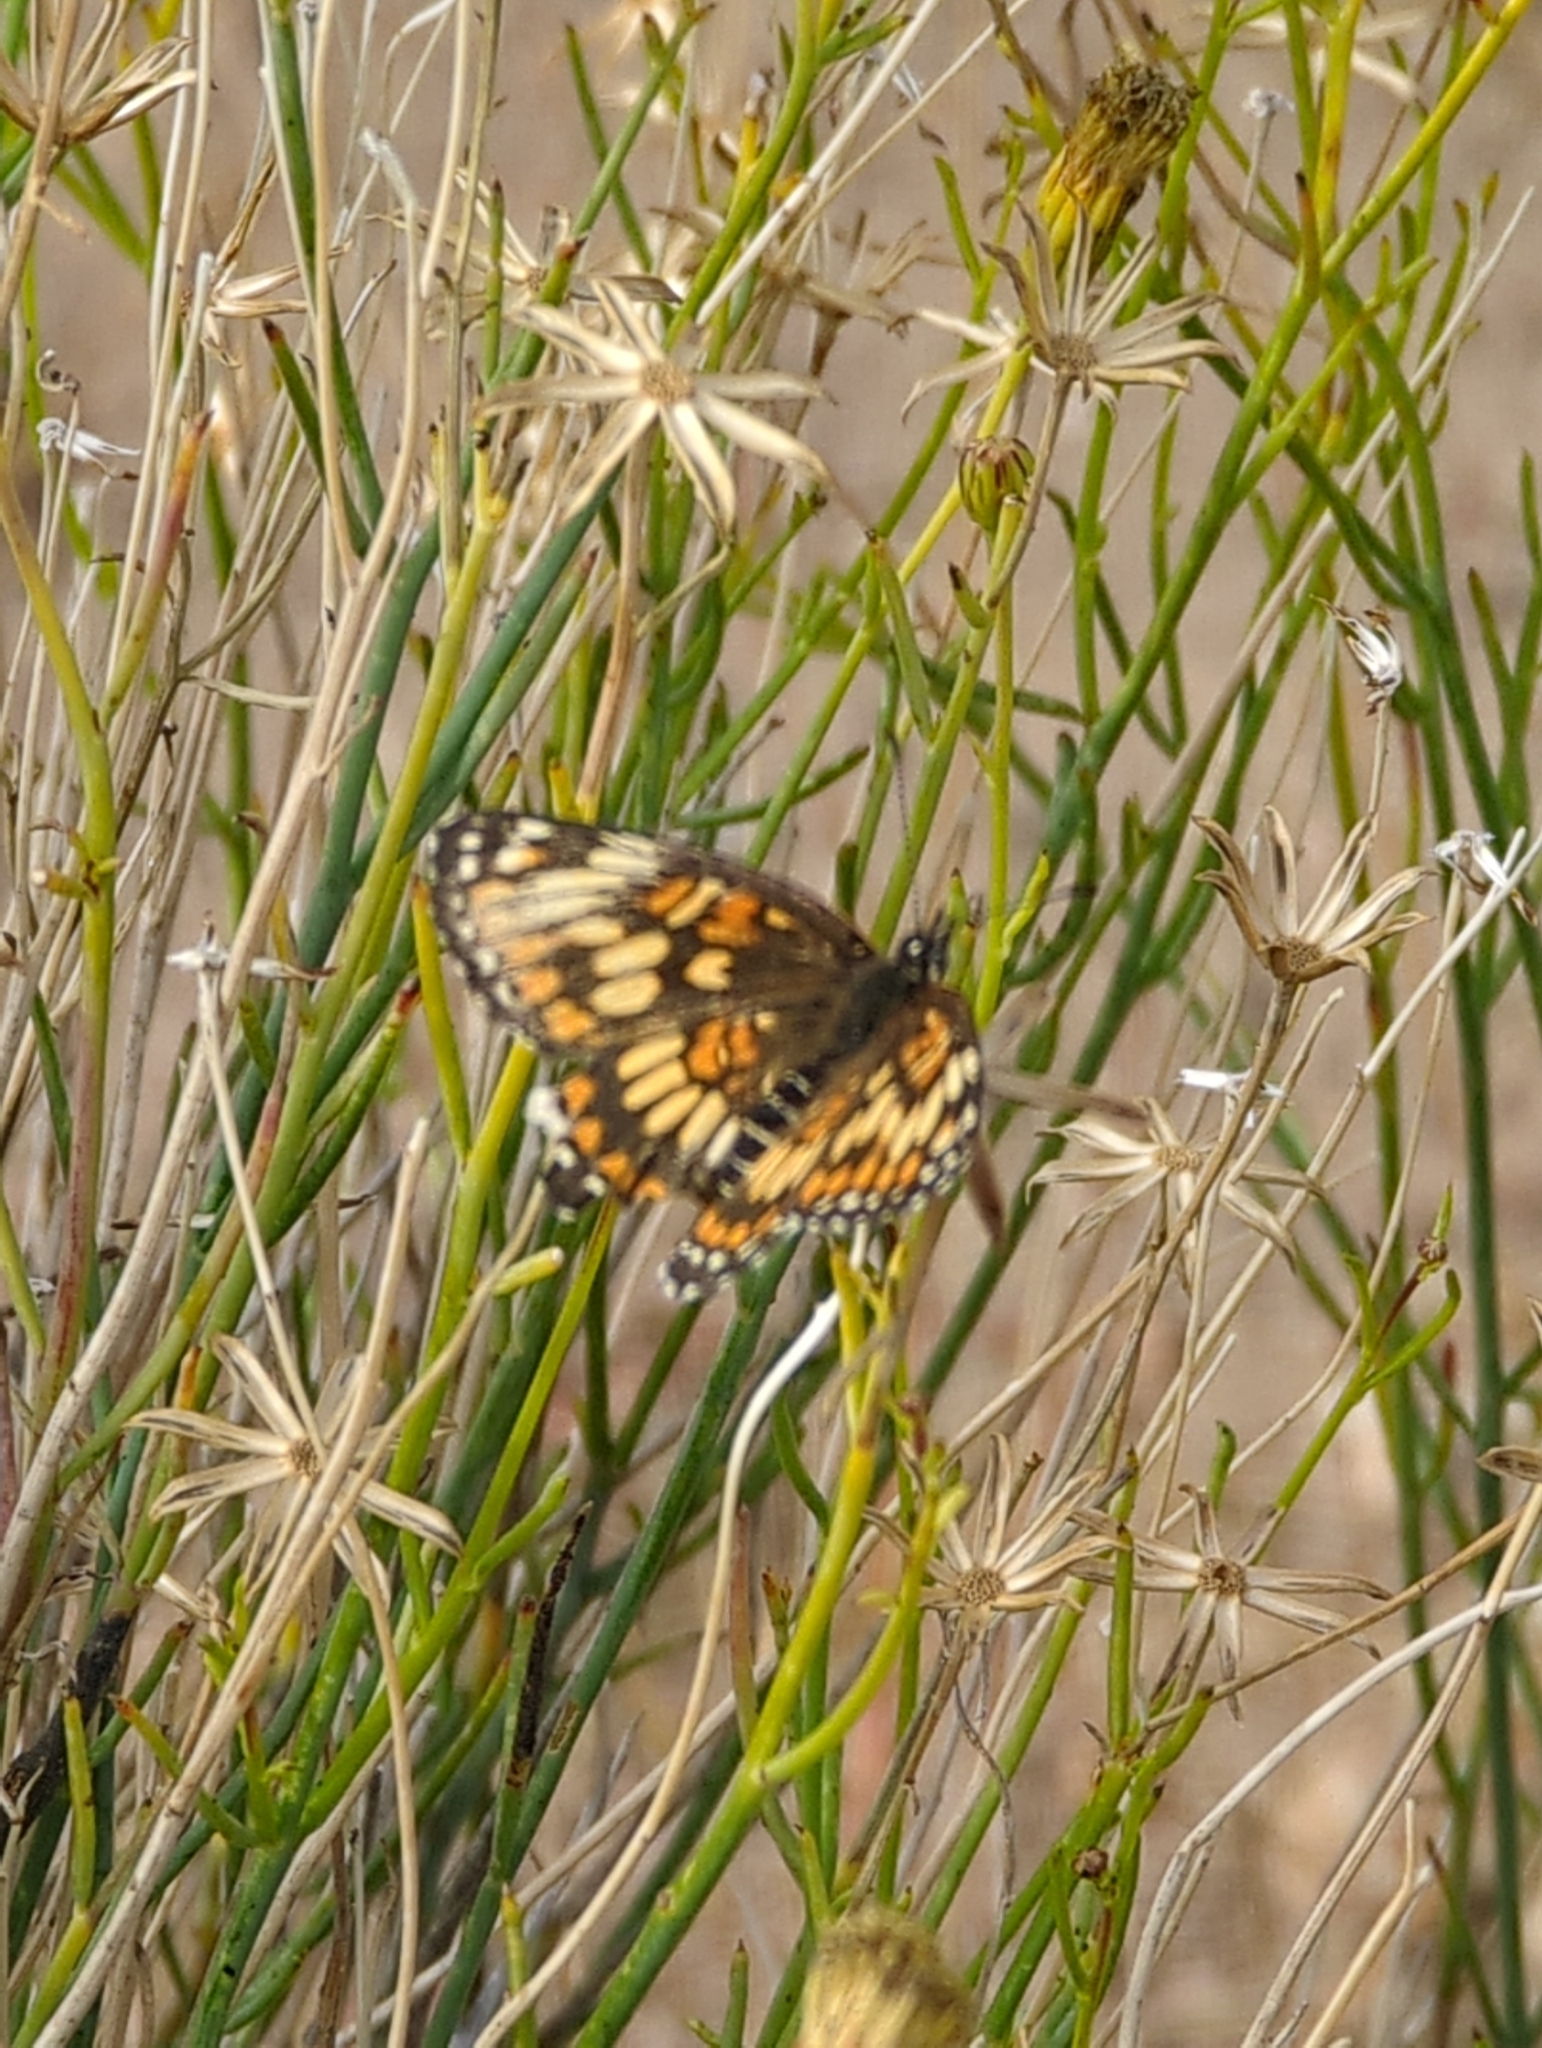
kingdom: Animalia
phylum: Arthropoda
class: Insecta
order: Lepidoptera
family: Nymphalidae
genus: Thessalia
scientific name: Thessalia theona
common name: Nymphalid moth
